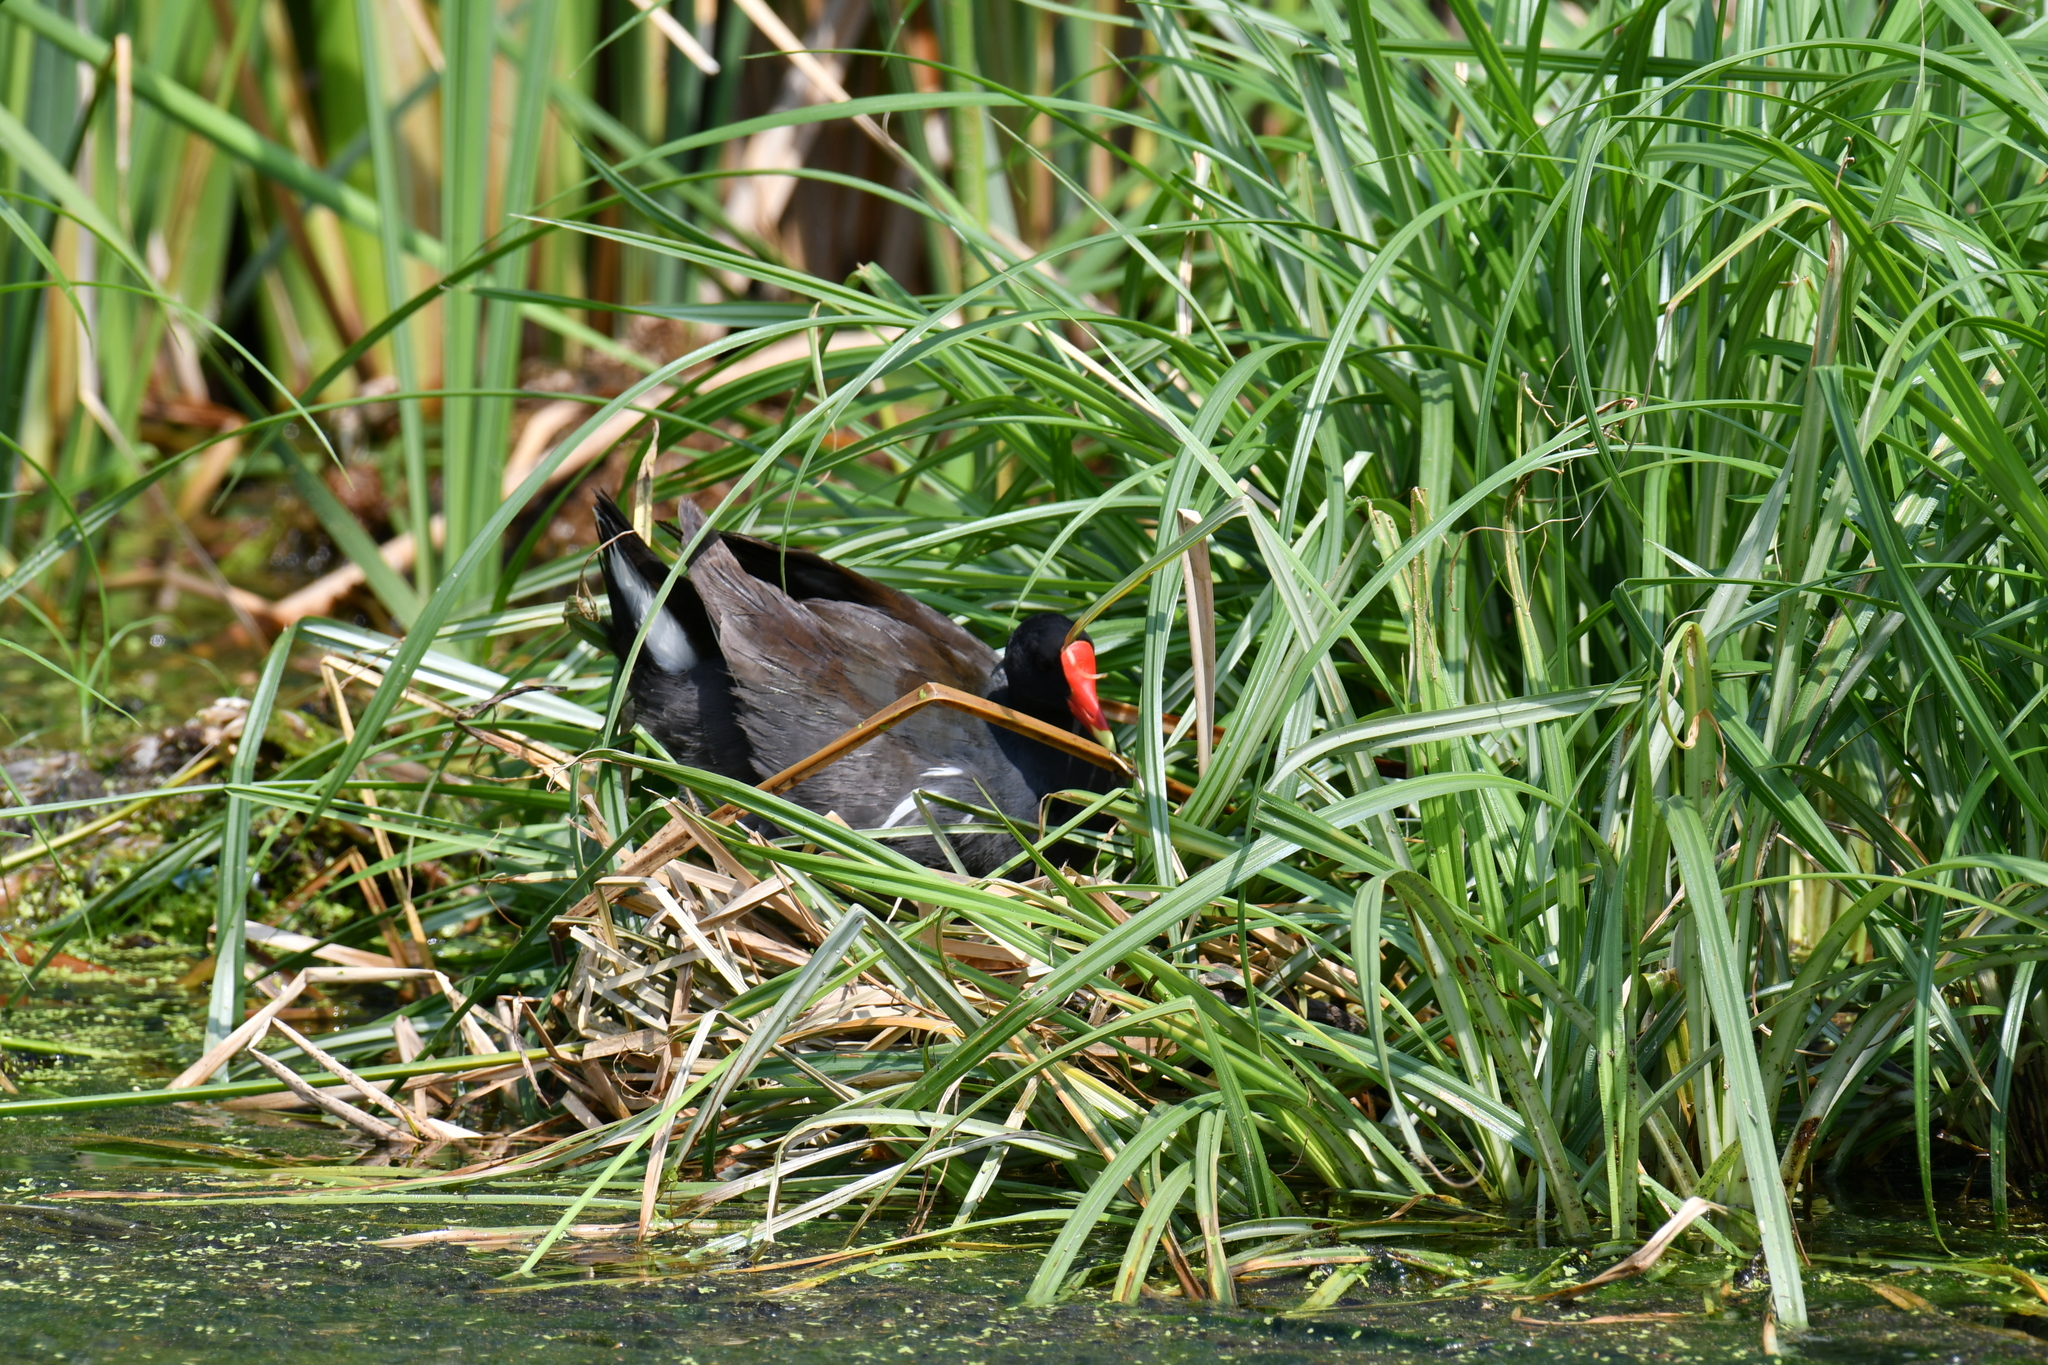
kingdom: Animalia
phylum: Chordata
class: Aves
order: Gruiformes
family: Rallidae
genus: Gallinula
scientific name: Gallinula chloropus
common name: Common moorhen
